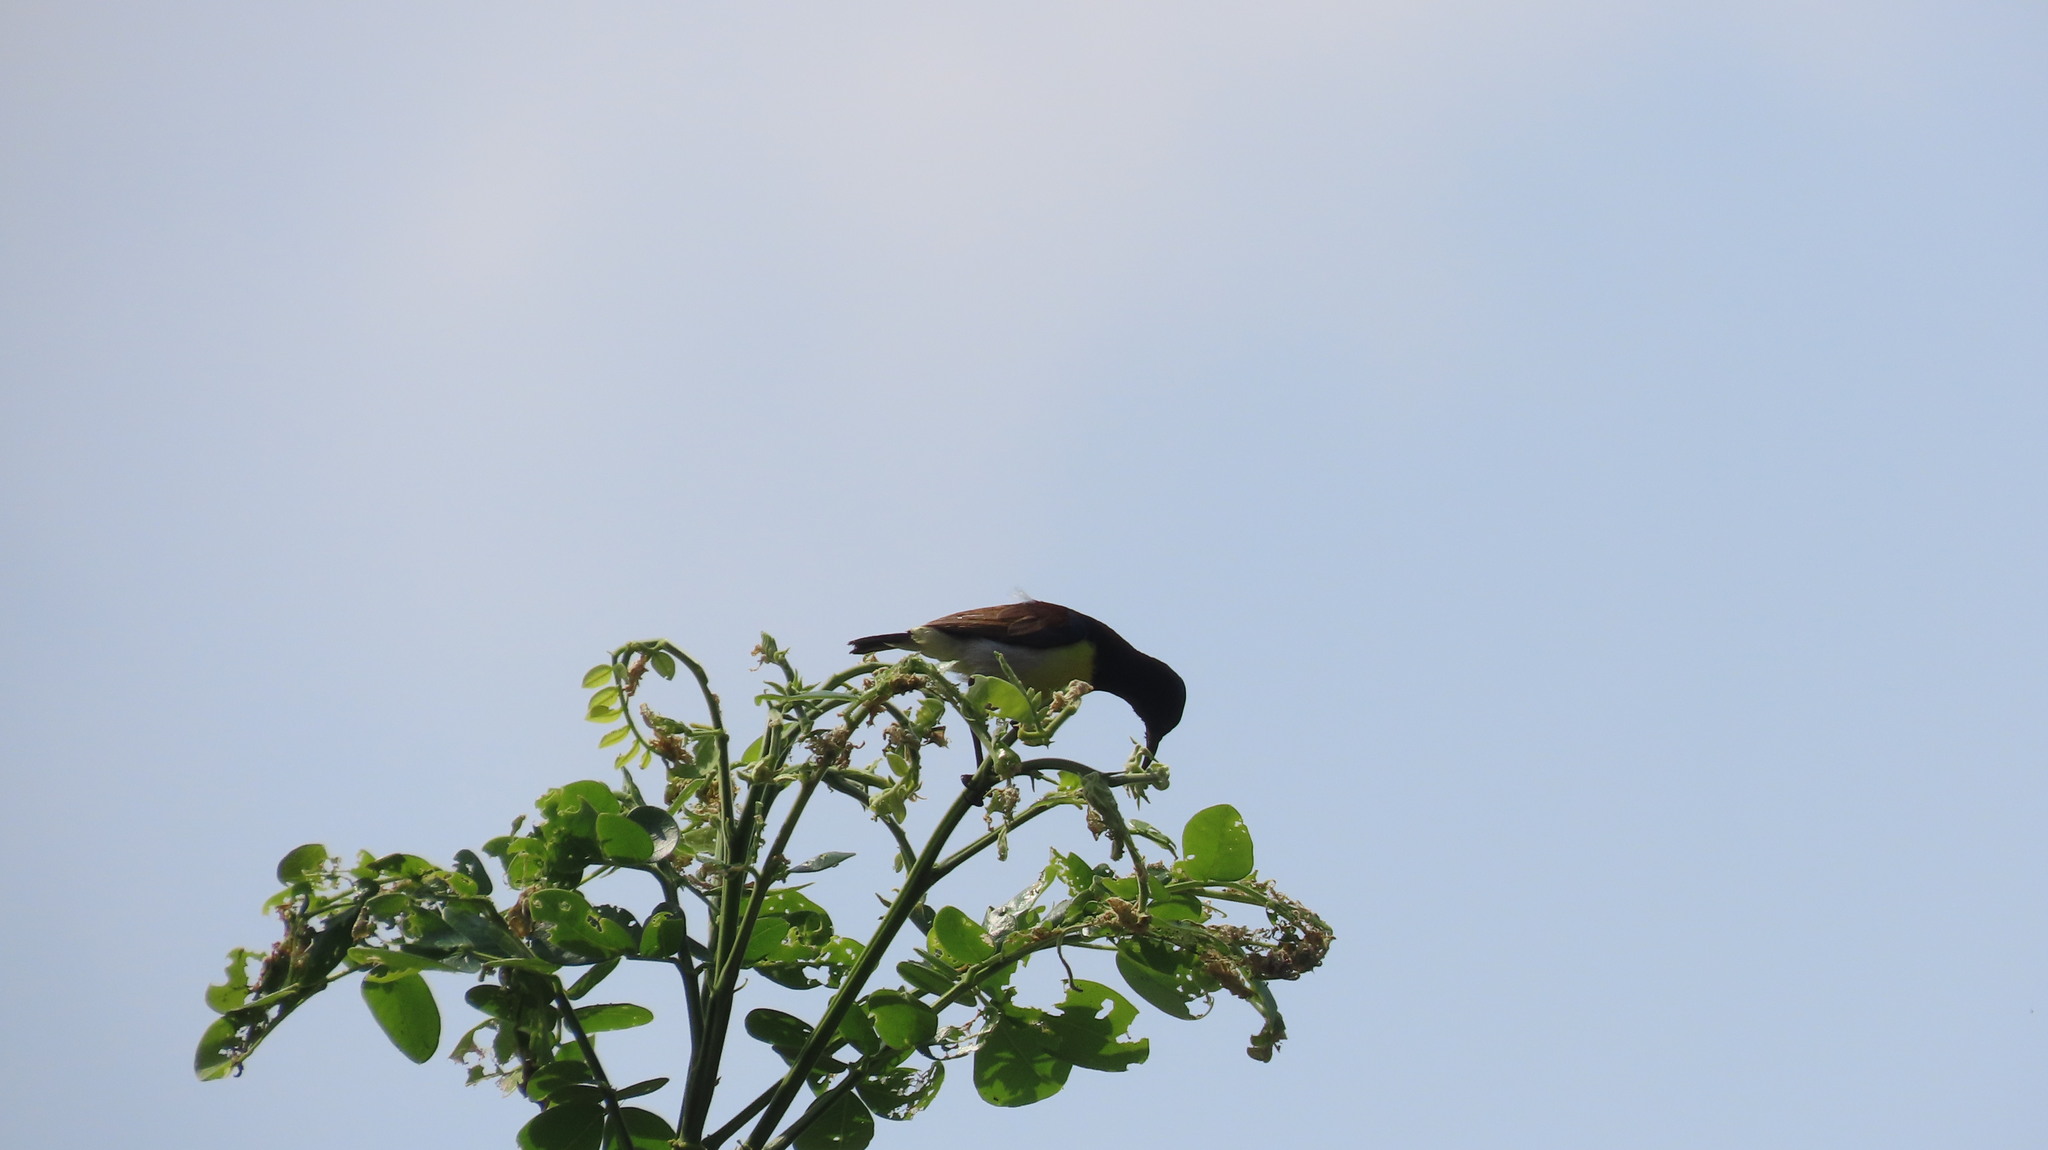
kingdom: Animalia
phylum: Chordata
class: Aves
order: Passeriformes
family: Nectariniidae
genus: Leptocoma
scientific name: Leptocoma zeylonica
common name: Purple-rumped sunbird
